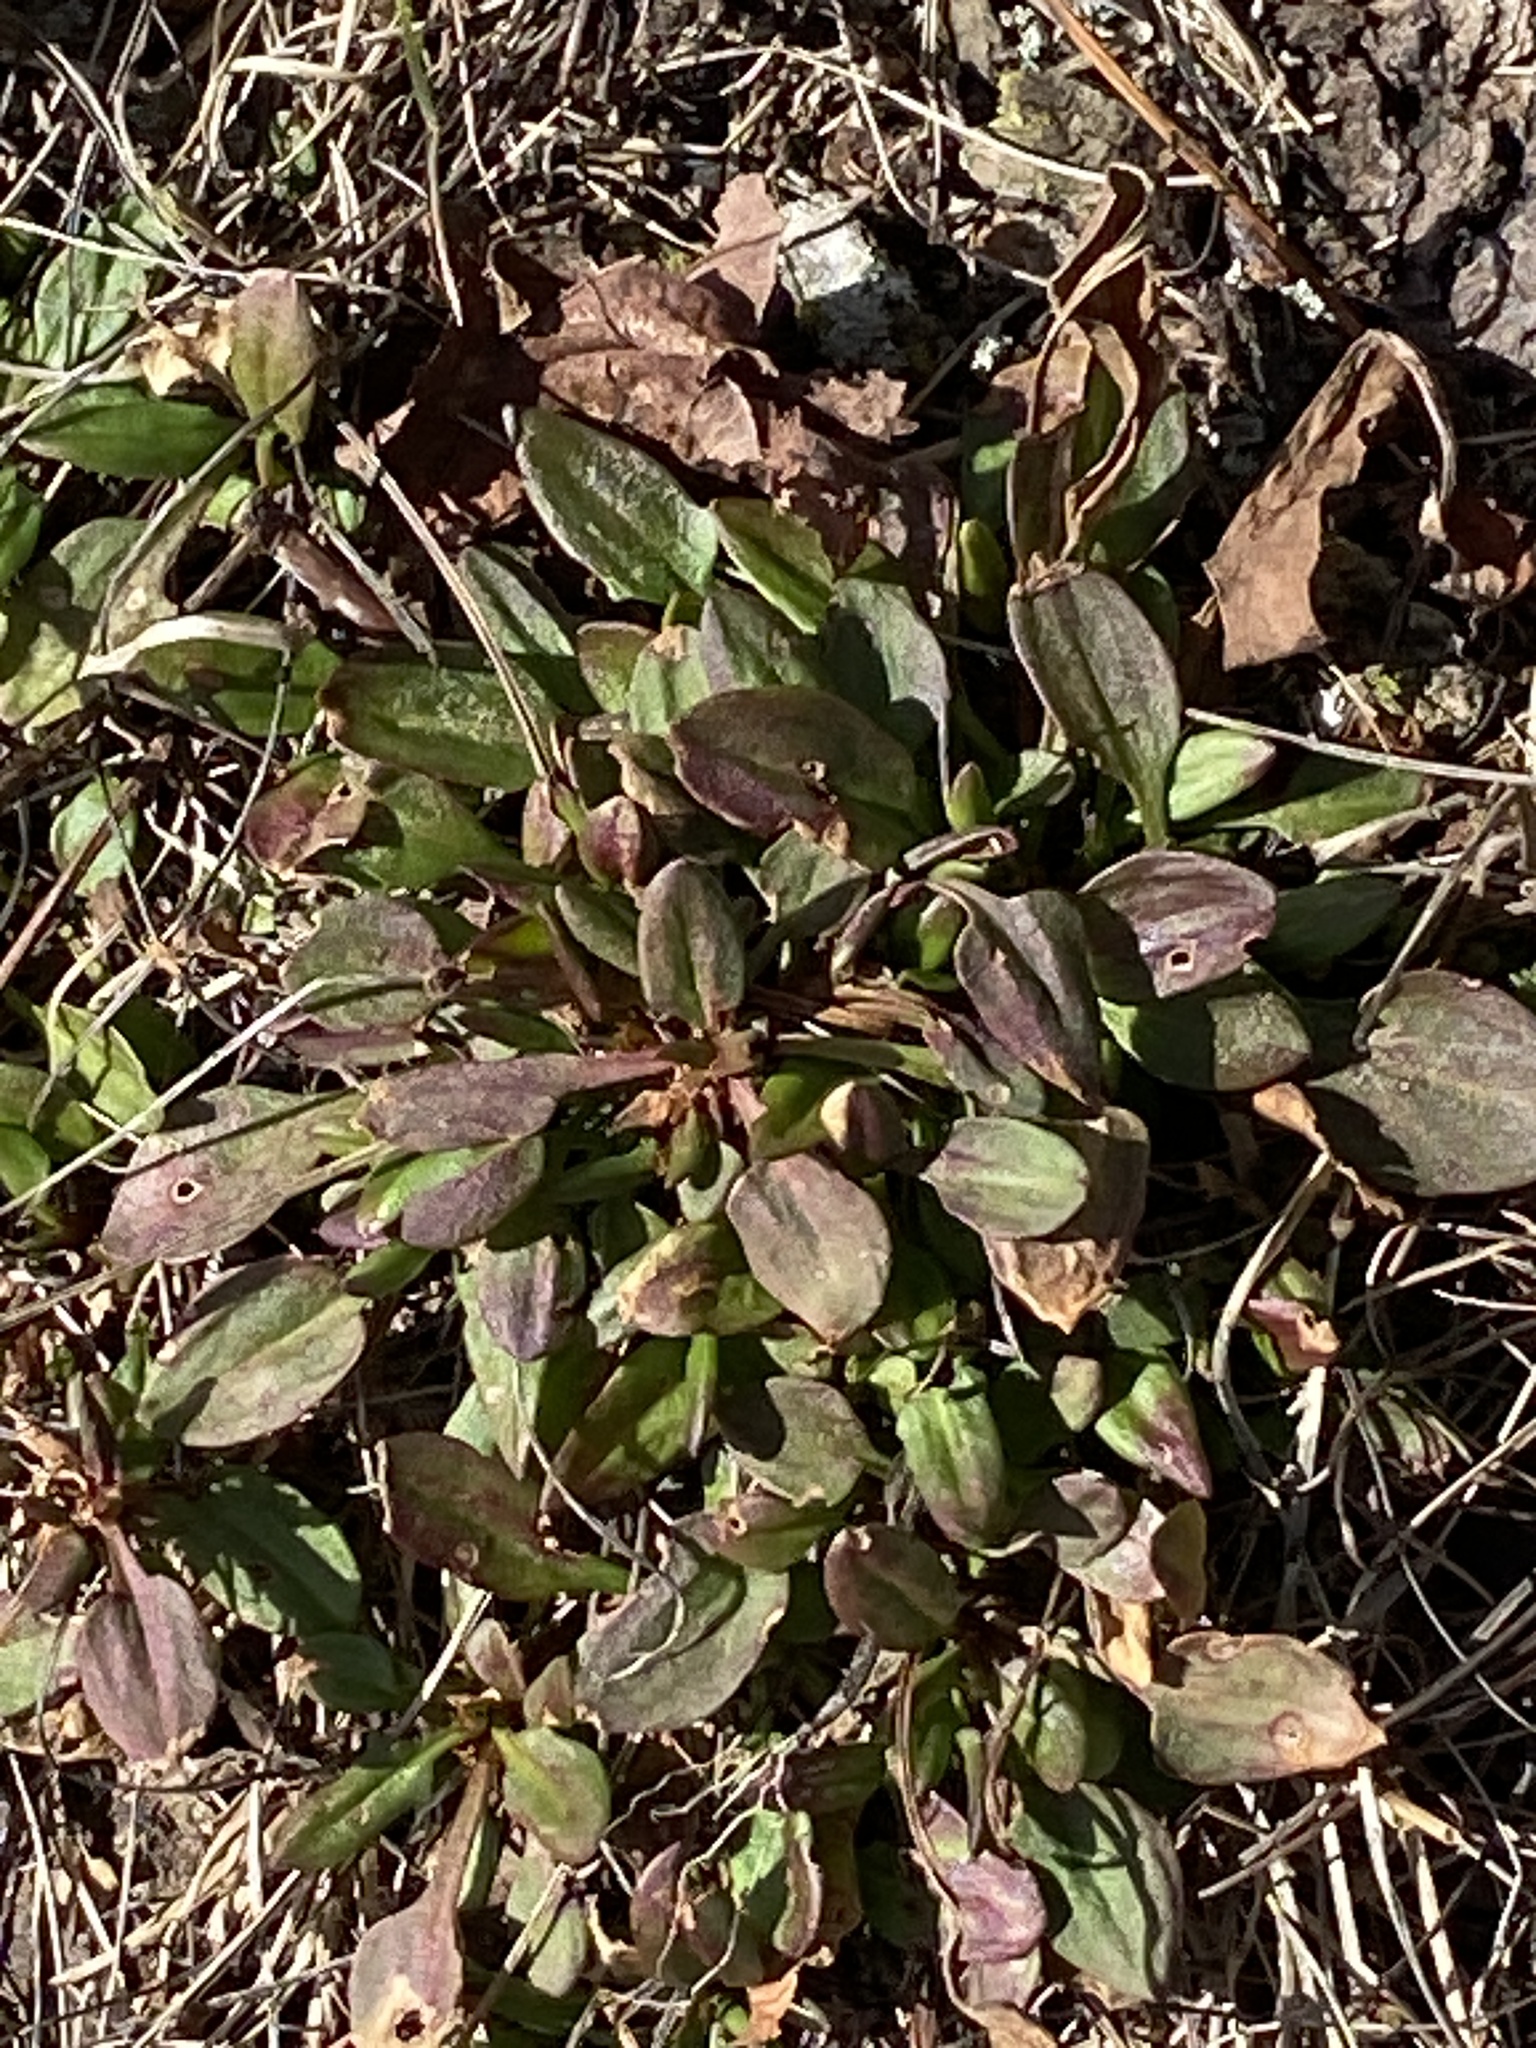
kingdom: Plantae
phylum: Tracheophyta
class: Magnoliopsida
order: Caryophyllales
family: Polygonaceae
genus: Rumex
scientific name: Rumex acetosella
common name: Common sheep sorrel
